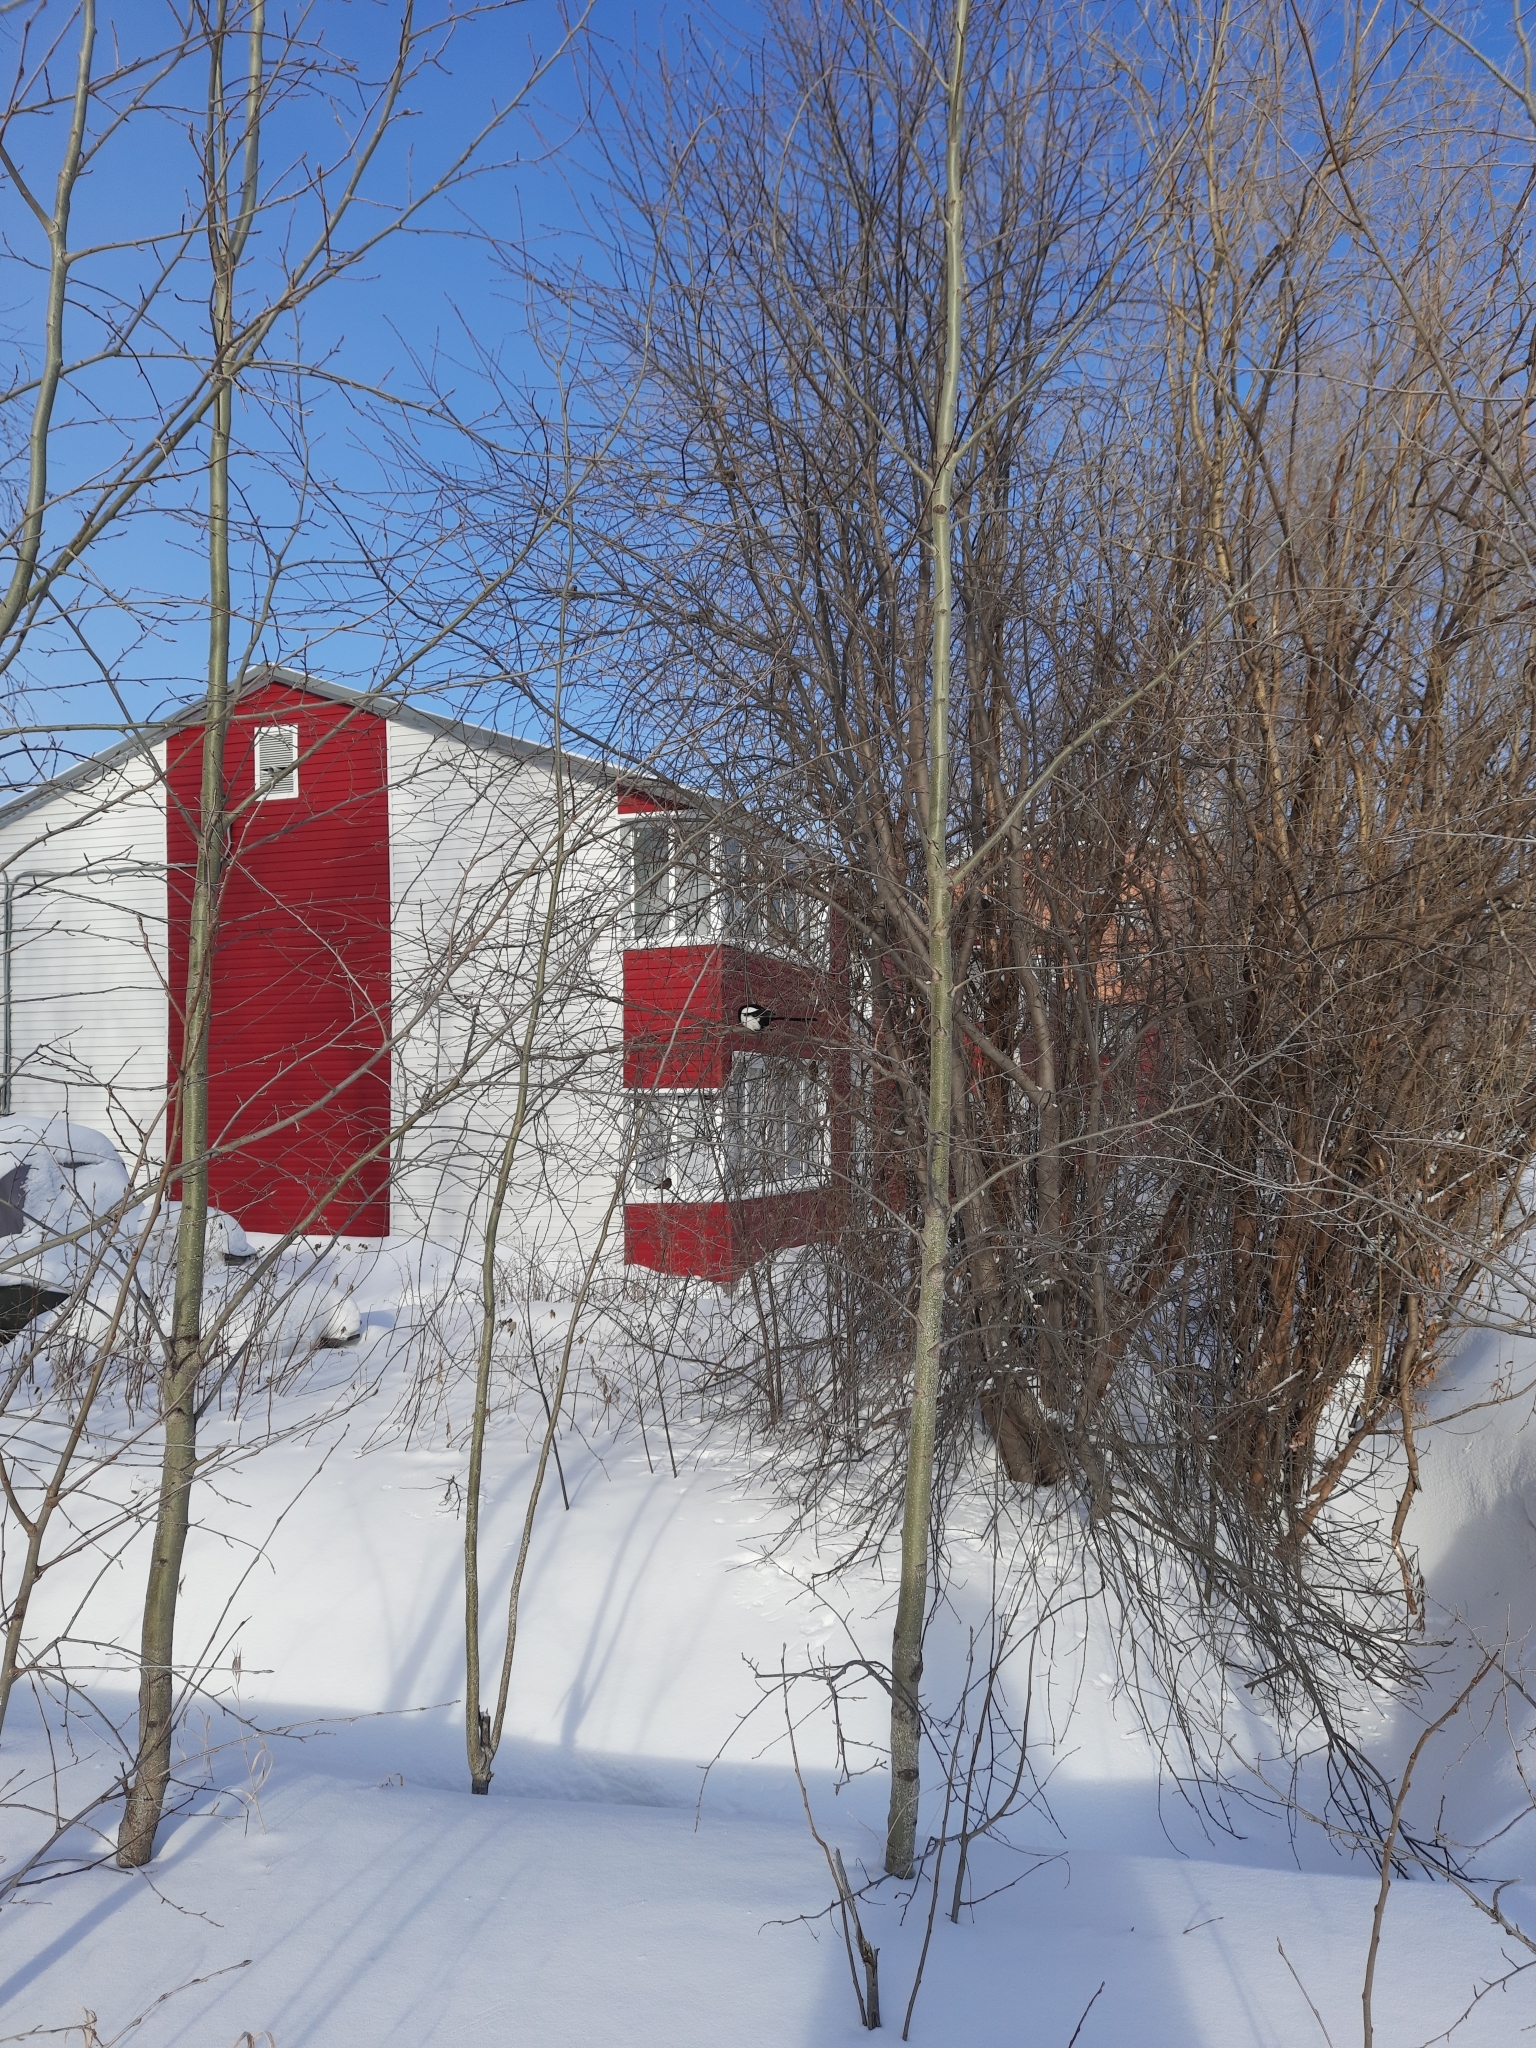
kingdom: Animalia
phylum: Chordata
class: Aves
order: Passeriformes
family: Corvidae
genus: Pica
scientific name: Pica pica
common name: Eurasian magpie
